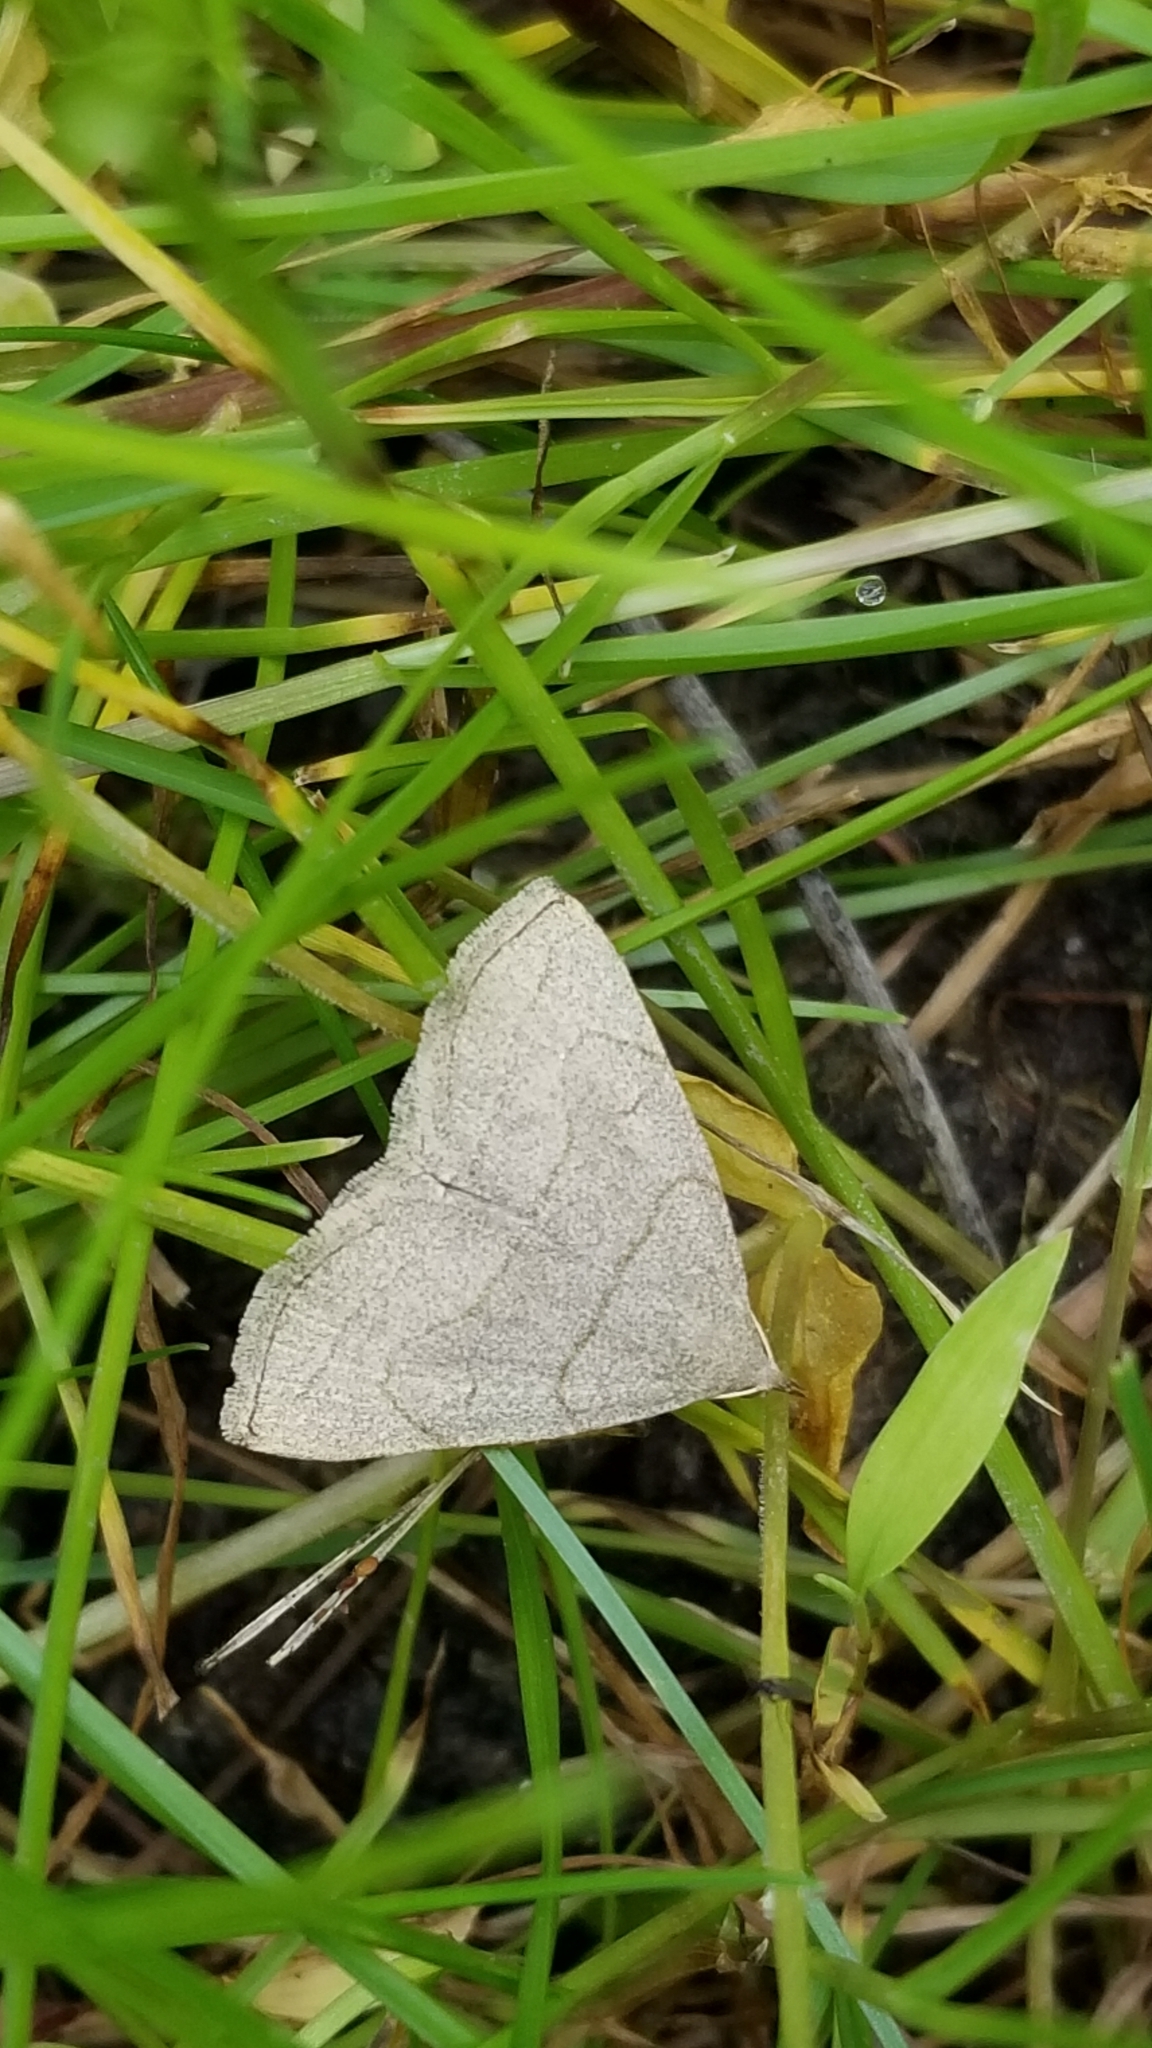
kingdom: Animalia
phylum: Arthropoda
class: Insecta
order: Lepidoptera
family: Erebidae
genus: Zanclognatha
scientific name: Zanclognatha pedipilalis
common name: Grayish fan-foot
